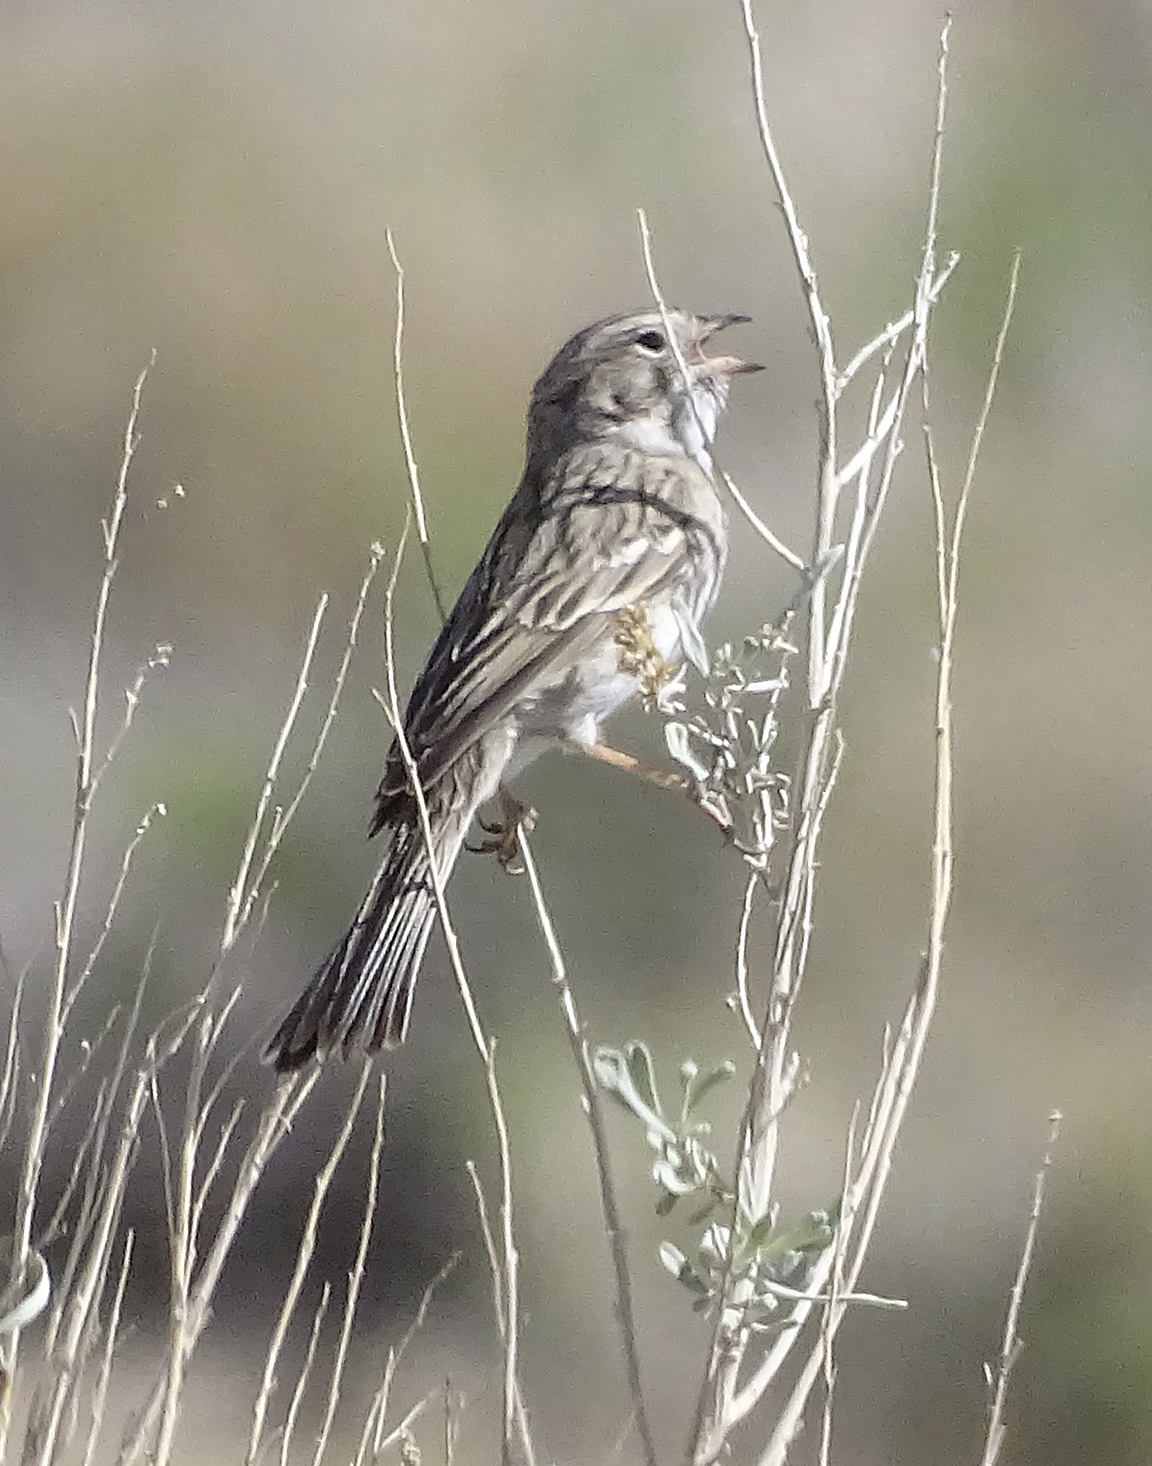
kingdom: Animalia
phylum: Chordata
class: Aves
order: Passeriformes
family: Passerellidae
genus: Spizella
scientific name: Spizella breweri
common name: Brewer's sparrow
